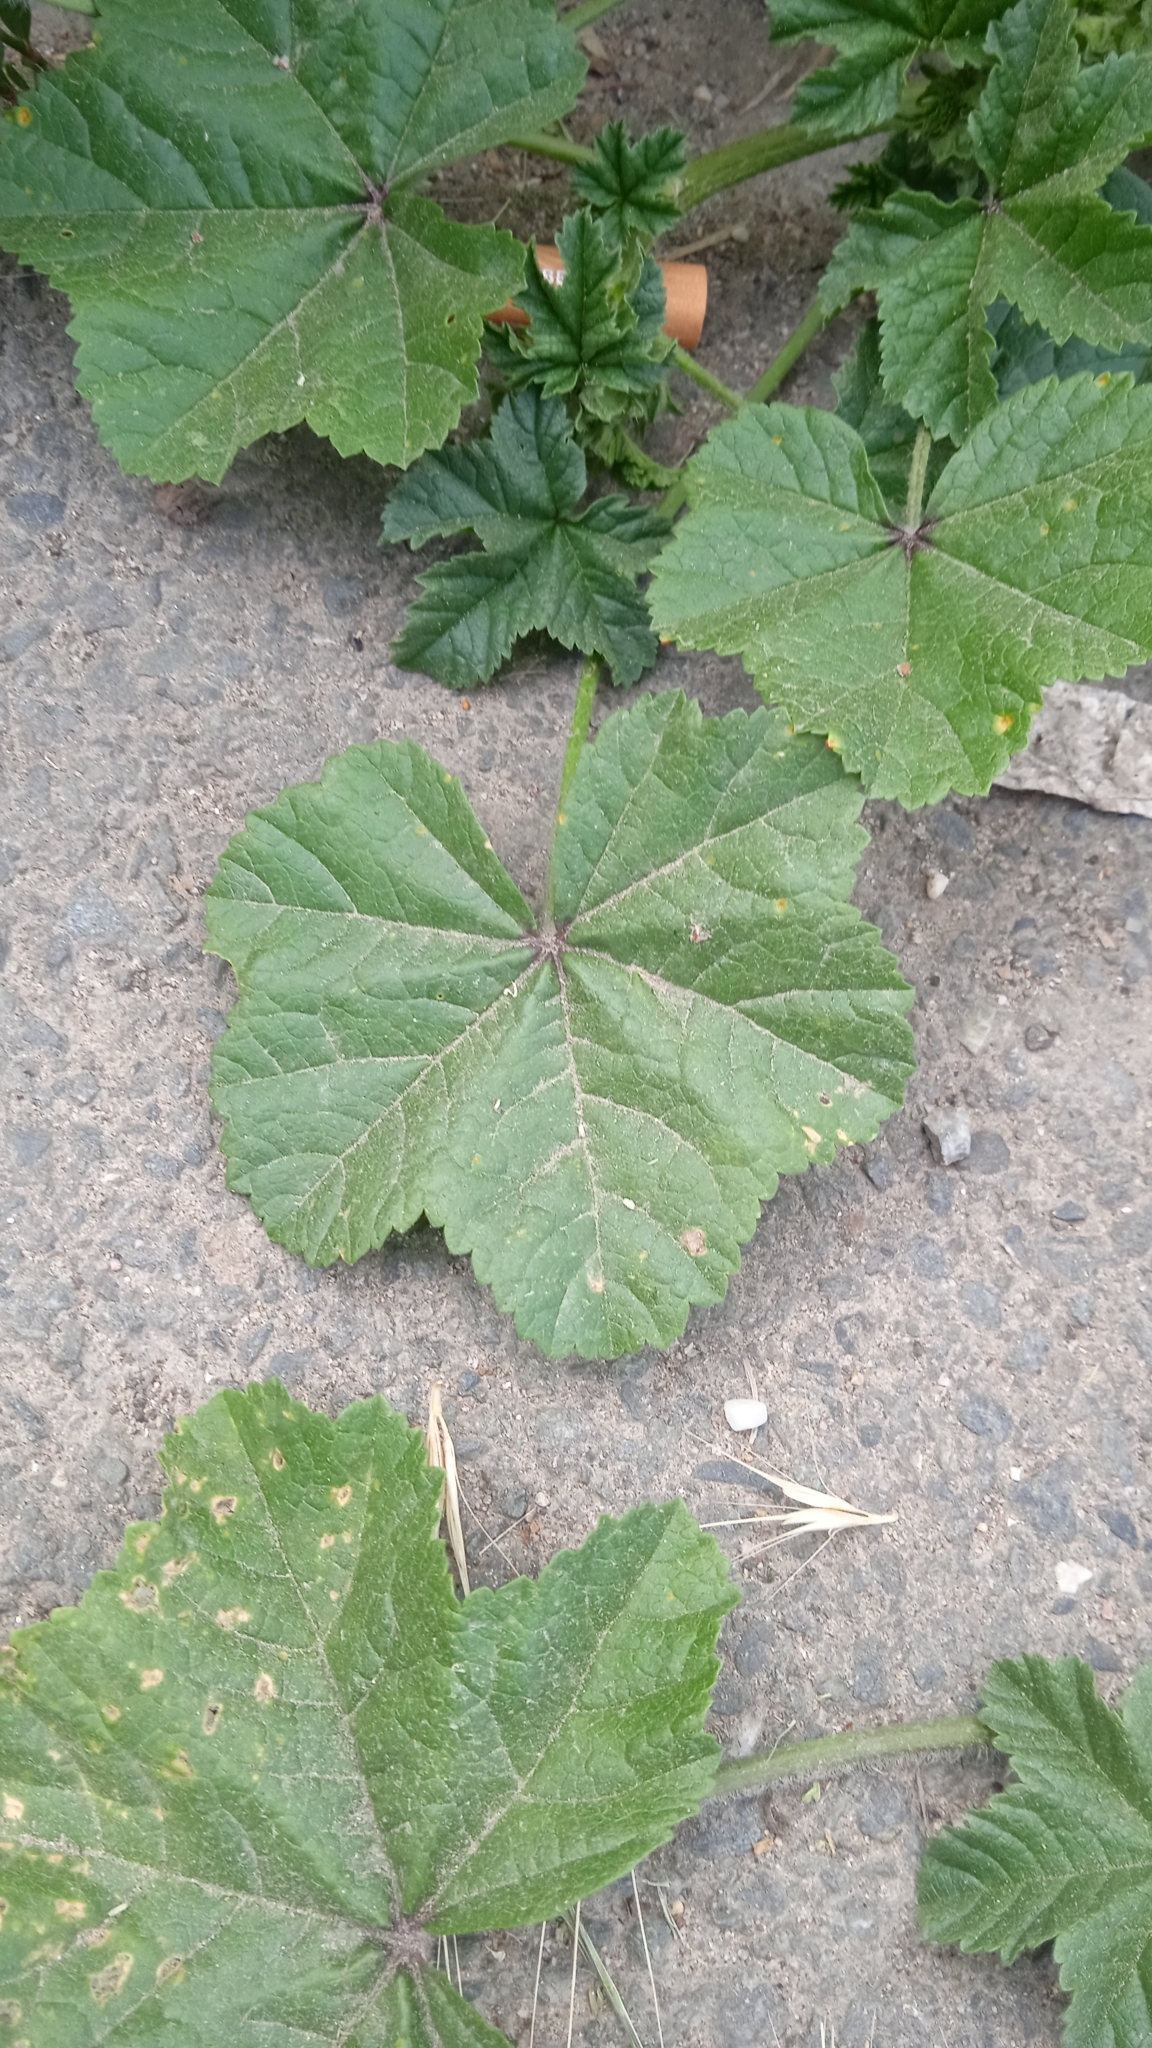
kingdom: Plantae
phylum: Tracheophyta
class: Magnoliopsida
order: Malvales
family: Malvaceae
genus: Malva
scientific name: Malva sylvestris
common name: Common mallow
